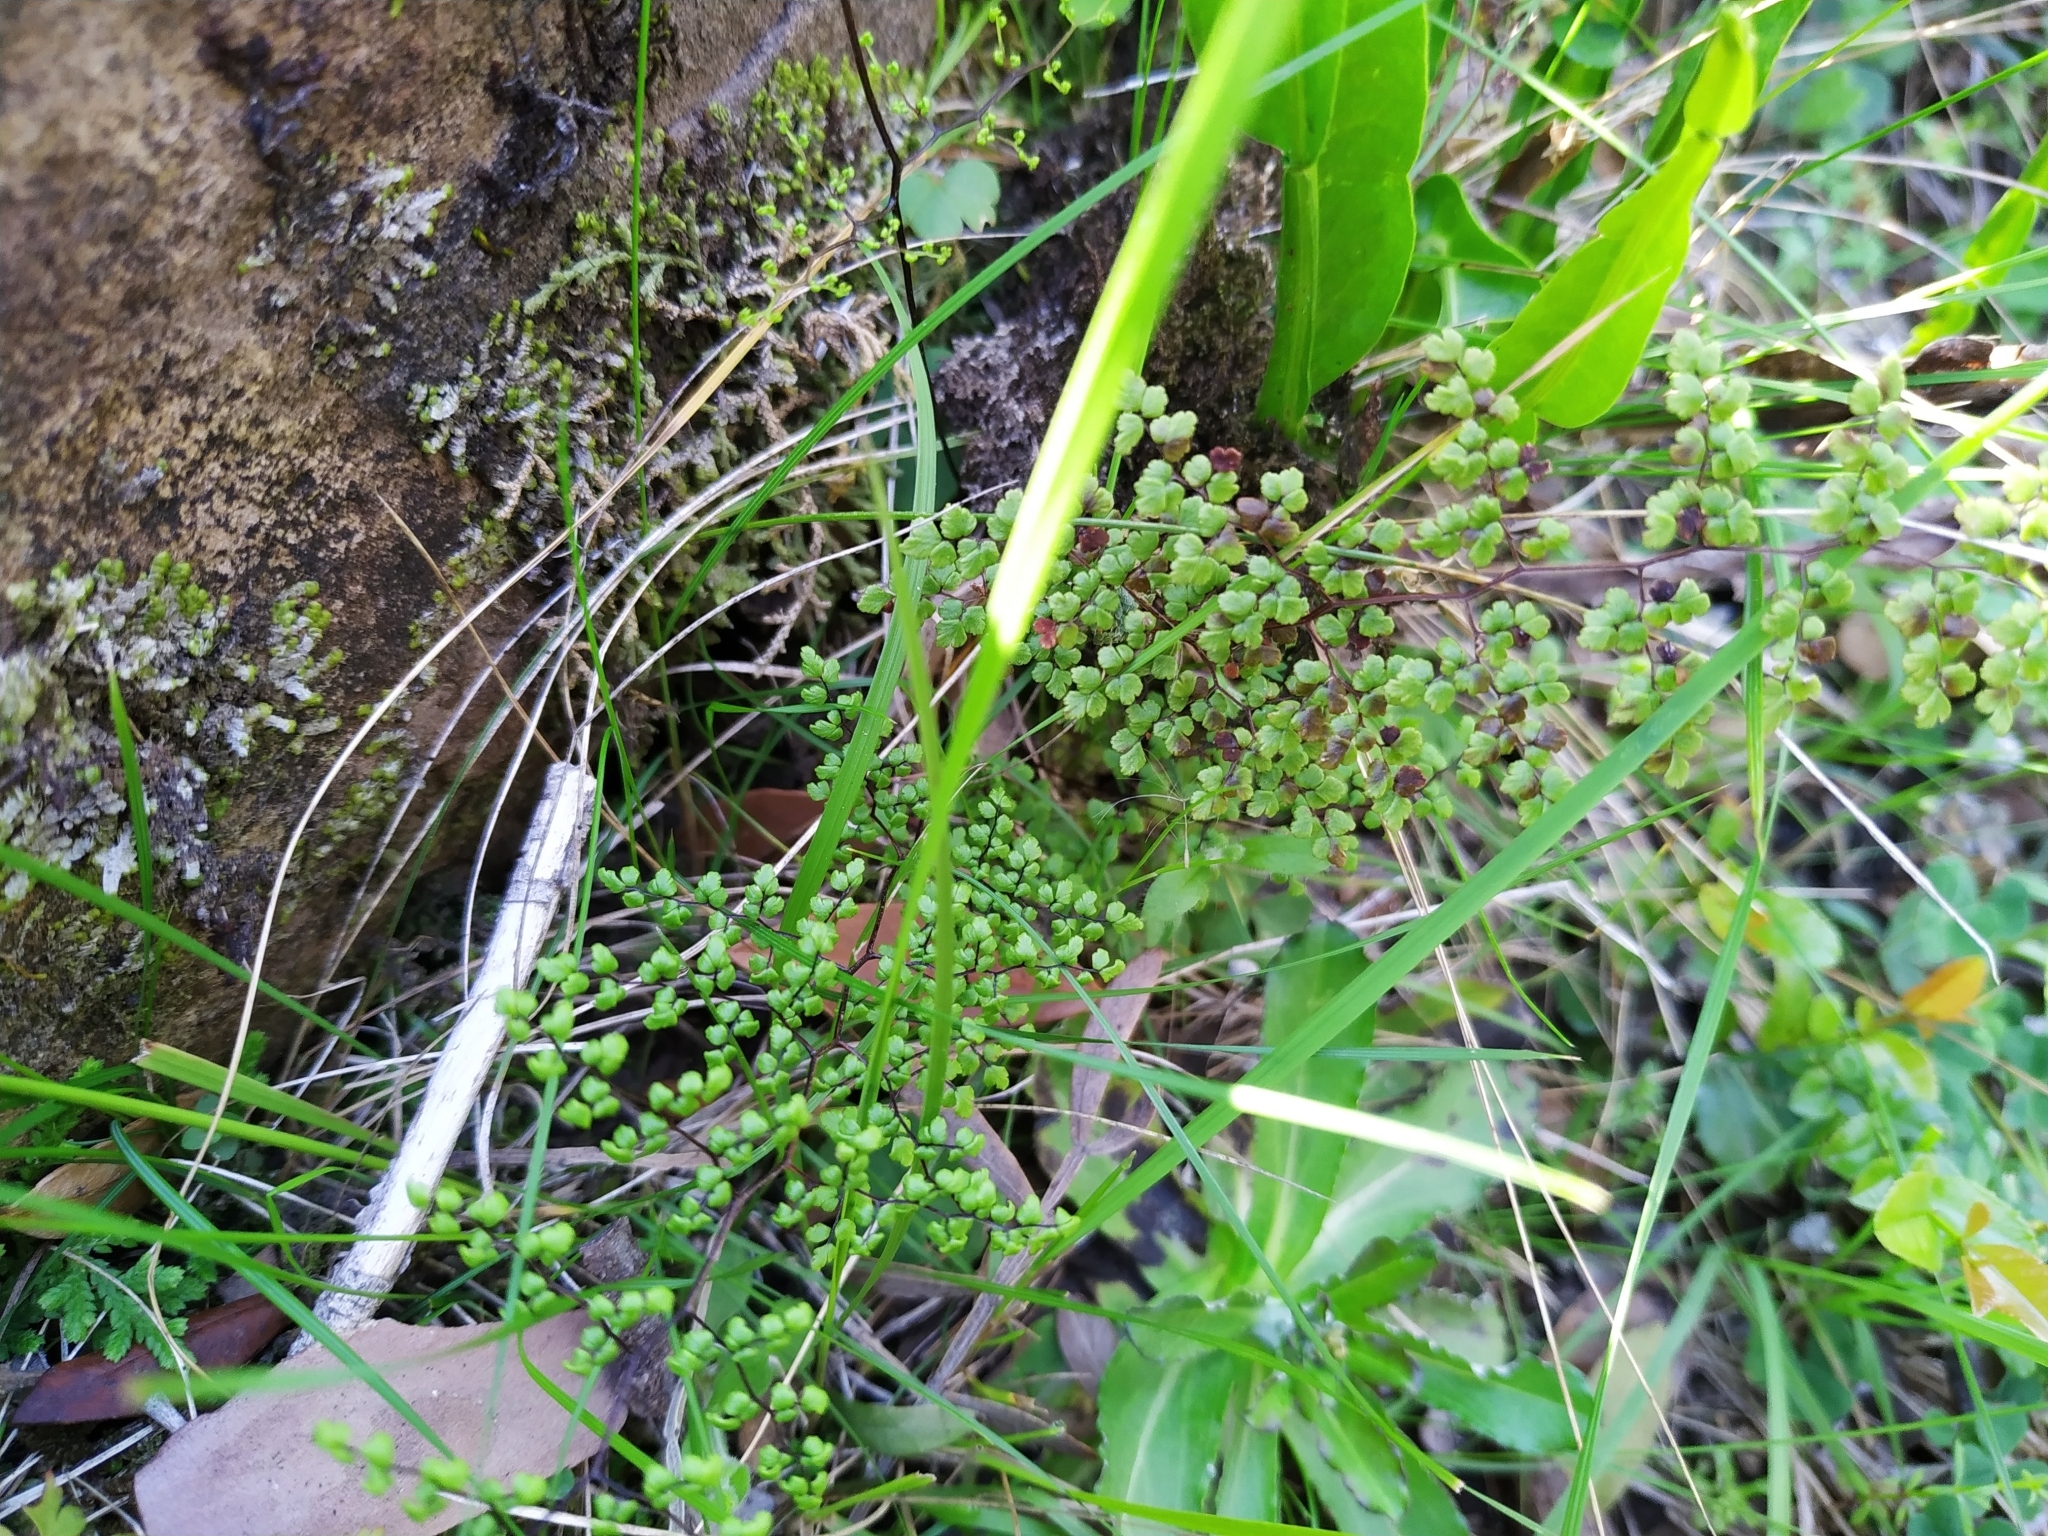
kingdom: Plantae
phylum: Tracheophyta
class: Polypodiopsida
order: Polypodiales
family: Pteridaceae
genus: Adiantopsis
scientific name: Adiantopsis dichotoma
